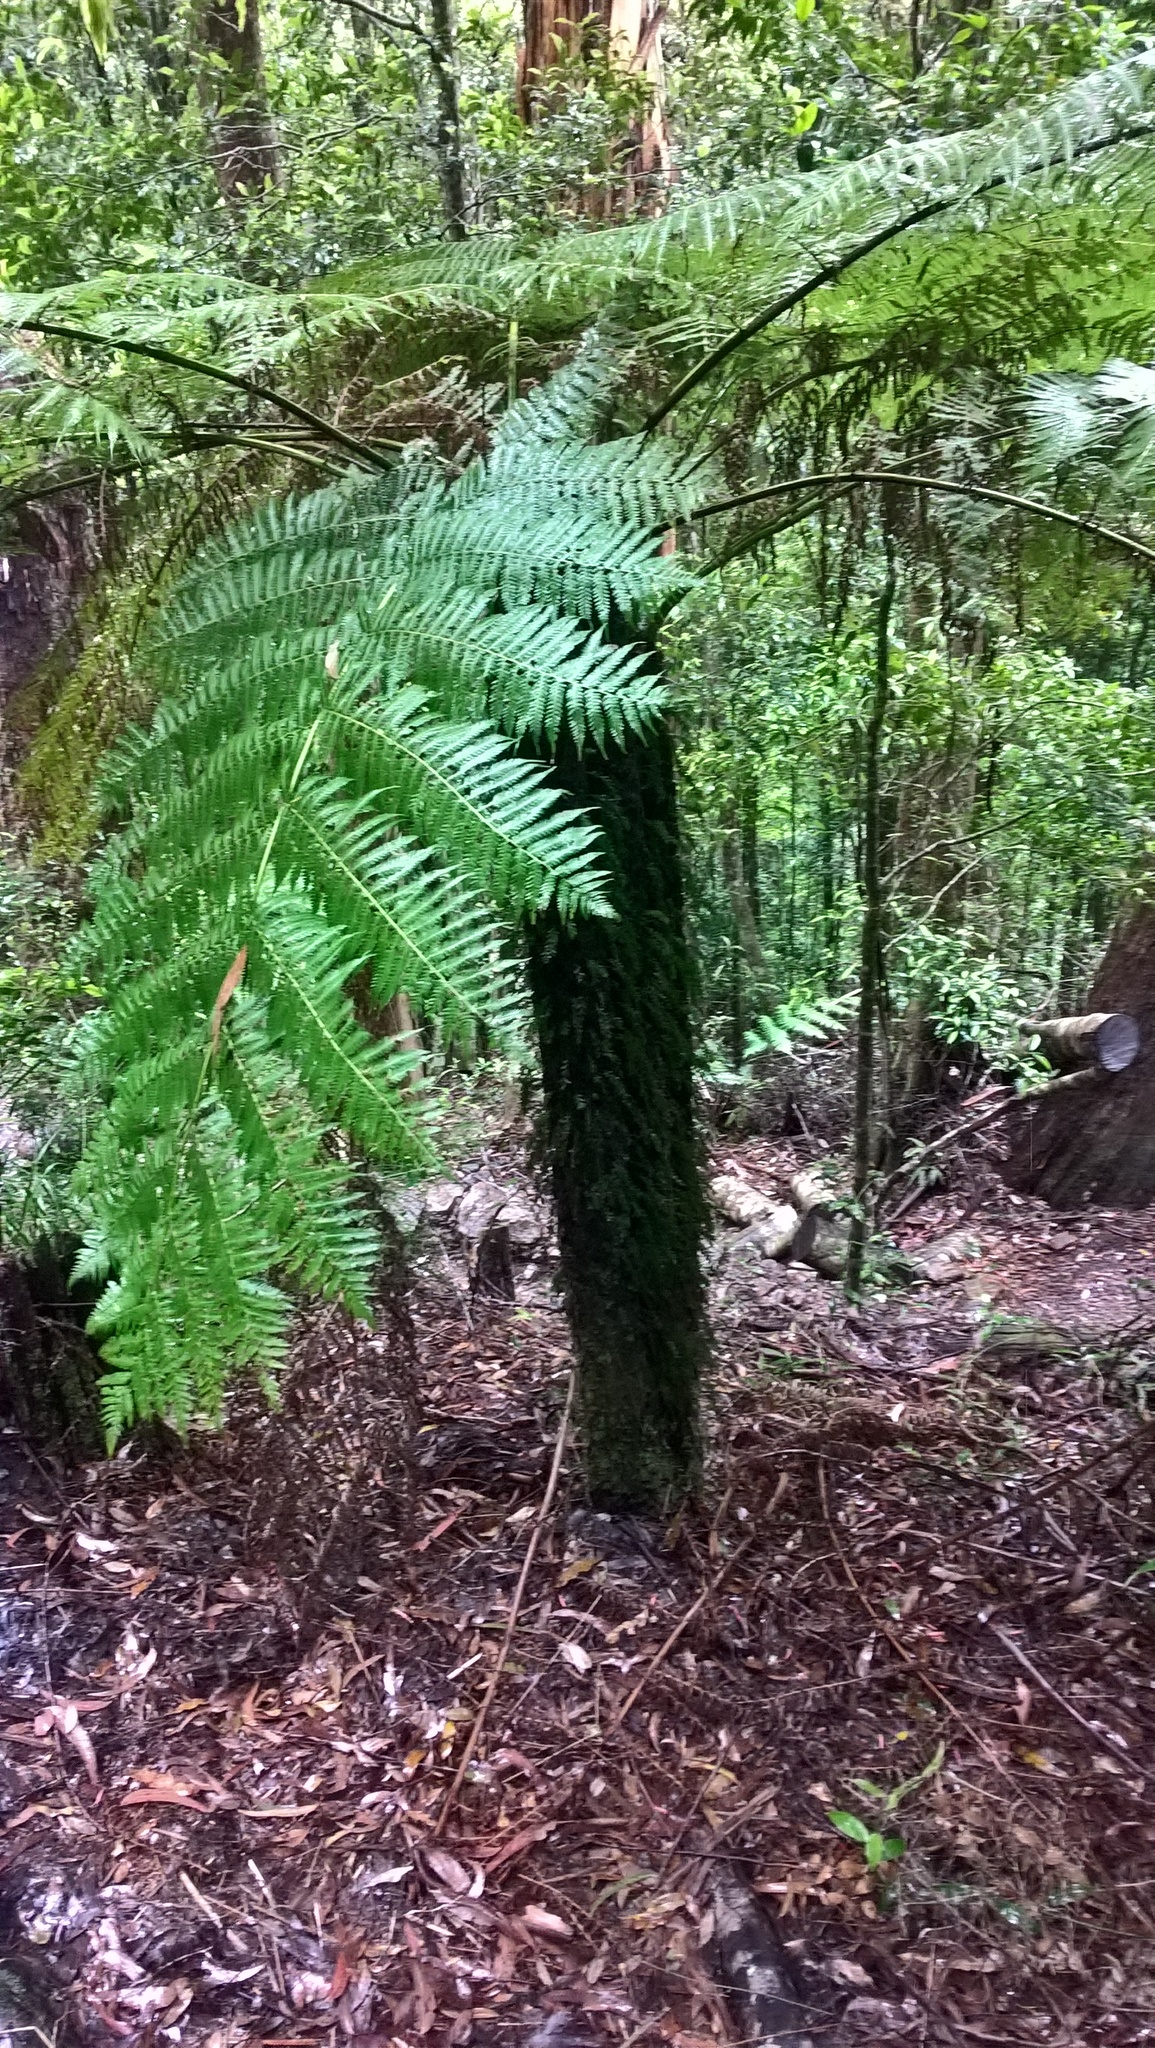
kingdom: Plantae
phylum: Tracheophyta
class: Polypodiopsida
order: Cyatheales
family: Cyatheaceae
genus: Alsophila
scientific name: Alsophila australis
